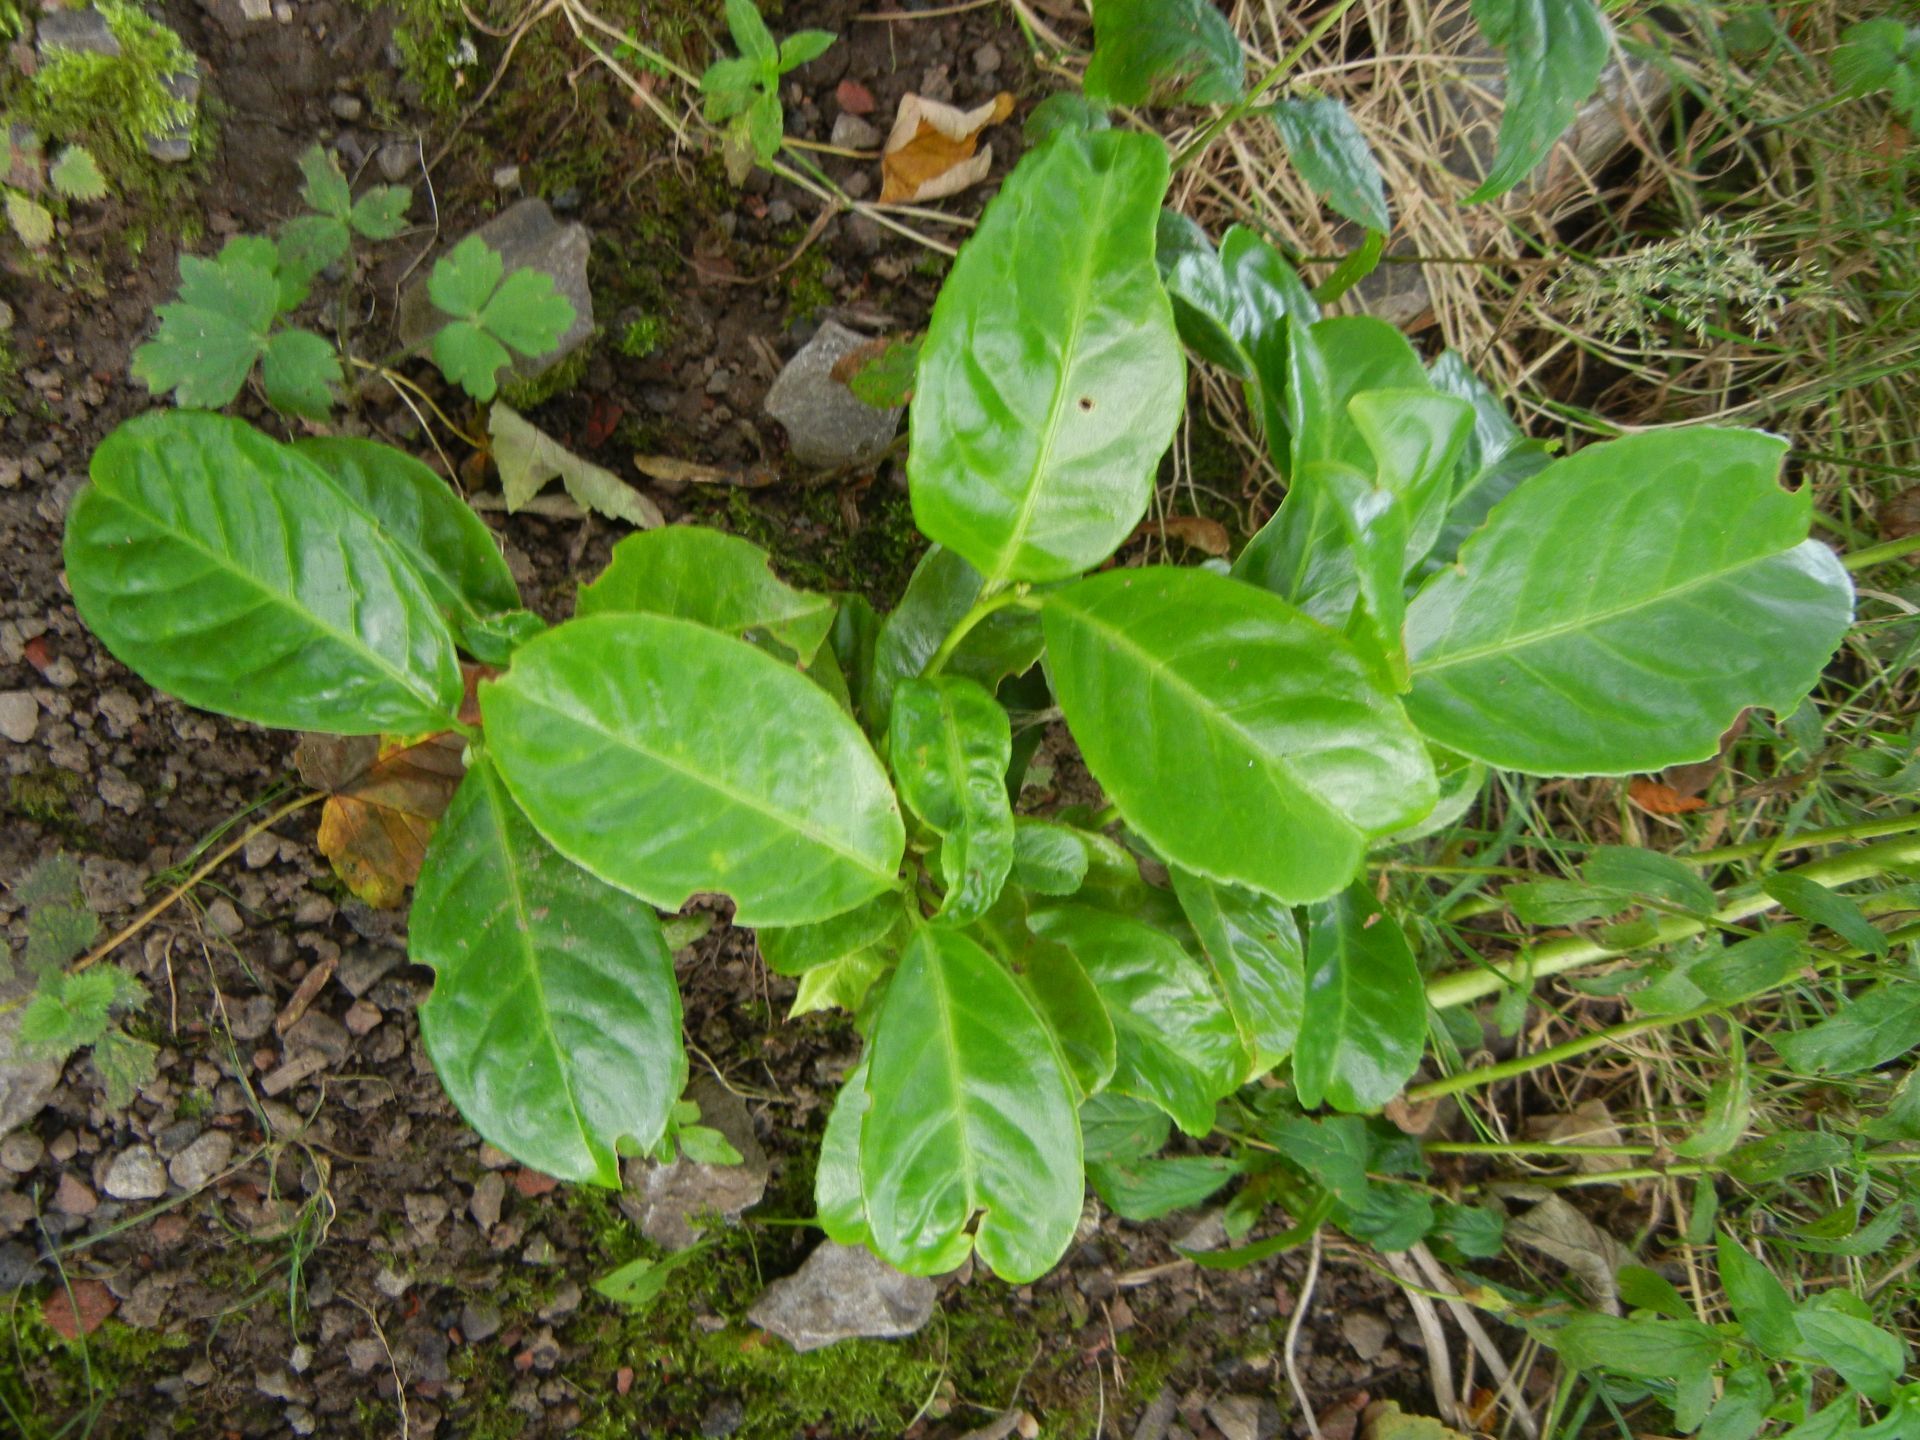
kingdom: Plantae
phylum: Tracheophyta
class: Magnoliopsida
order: Rosales
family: Rosaceae
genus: Prunus
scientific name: Prunus laurocerasus
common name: Cherry laurel
